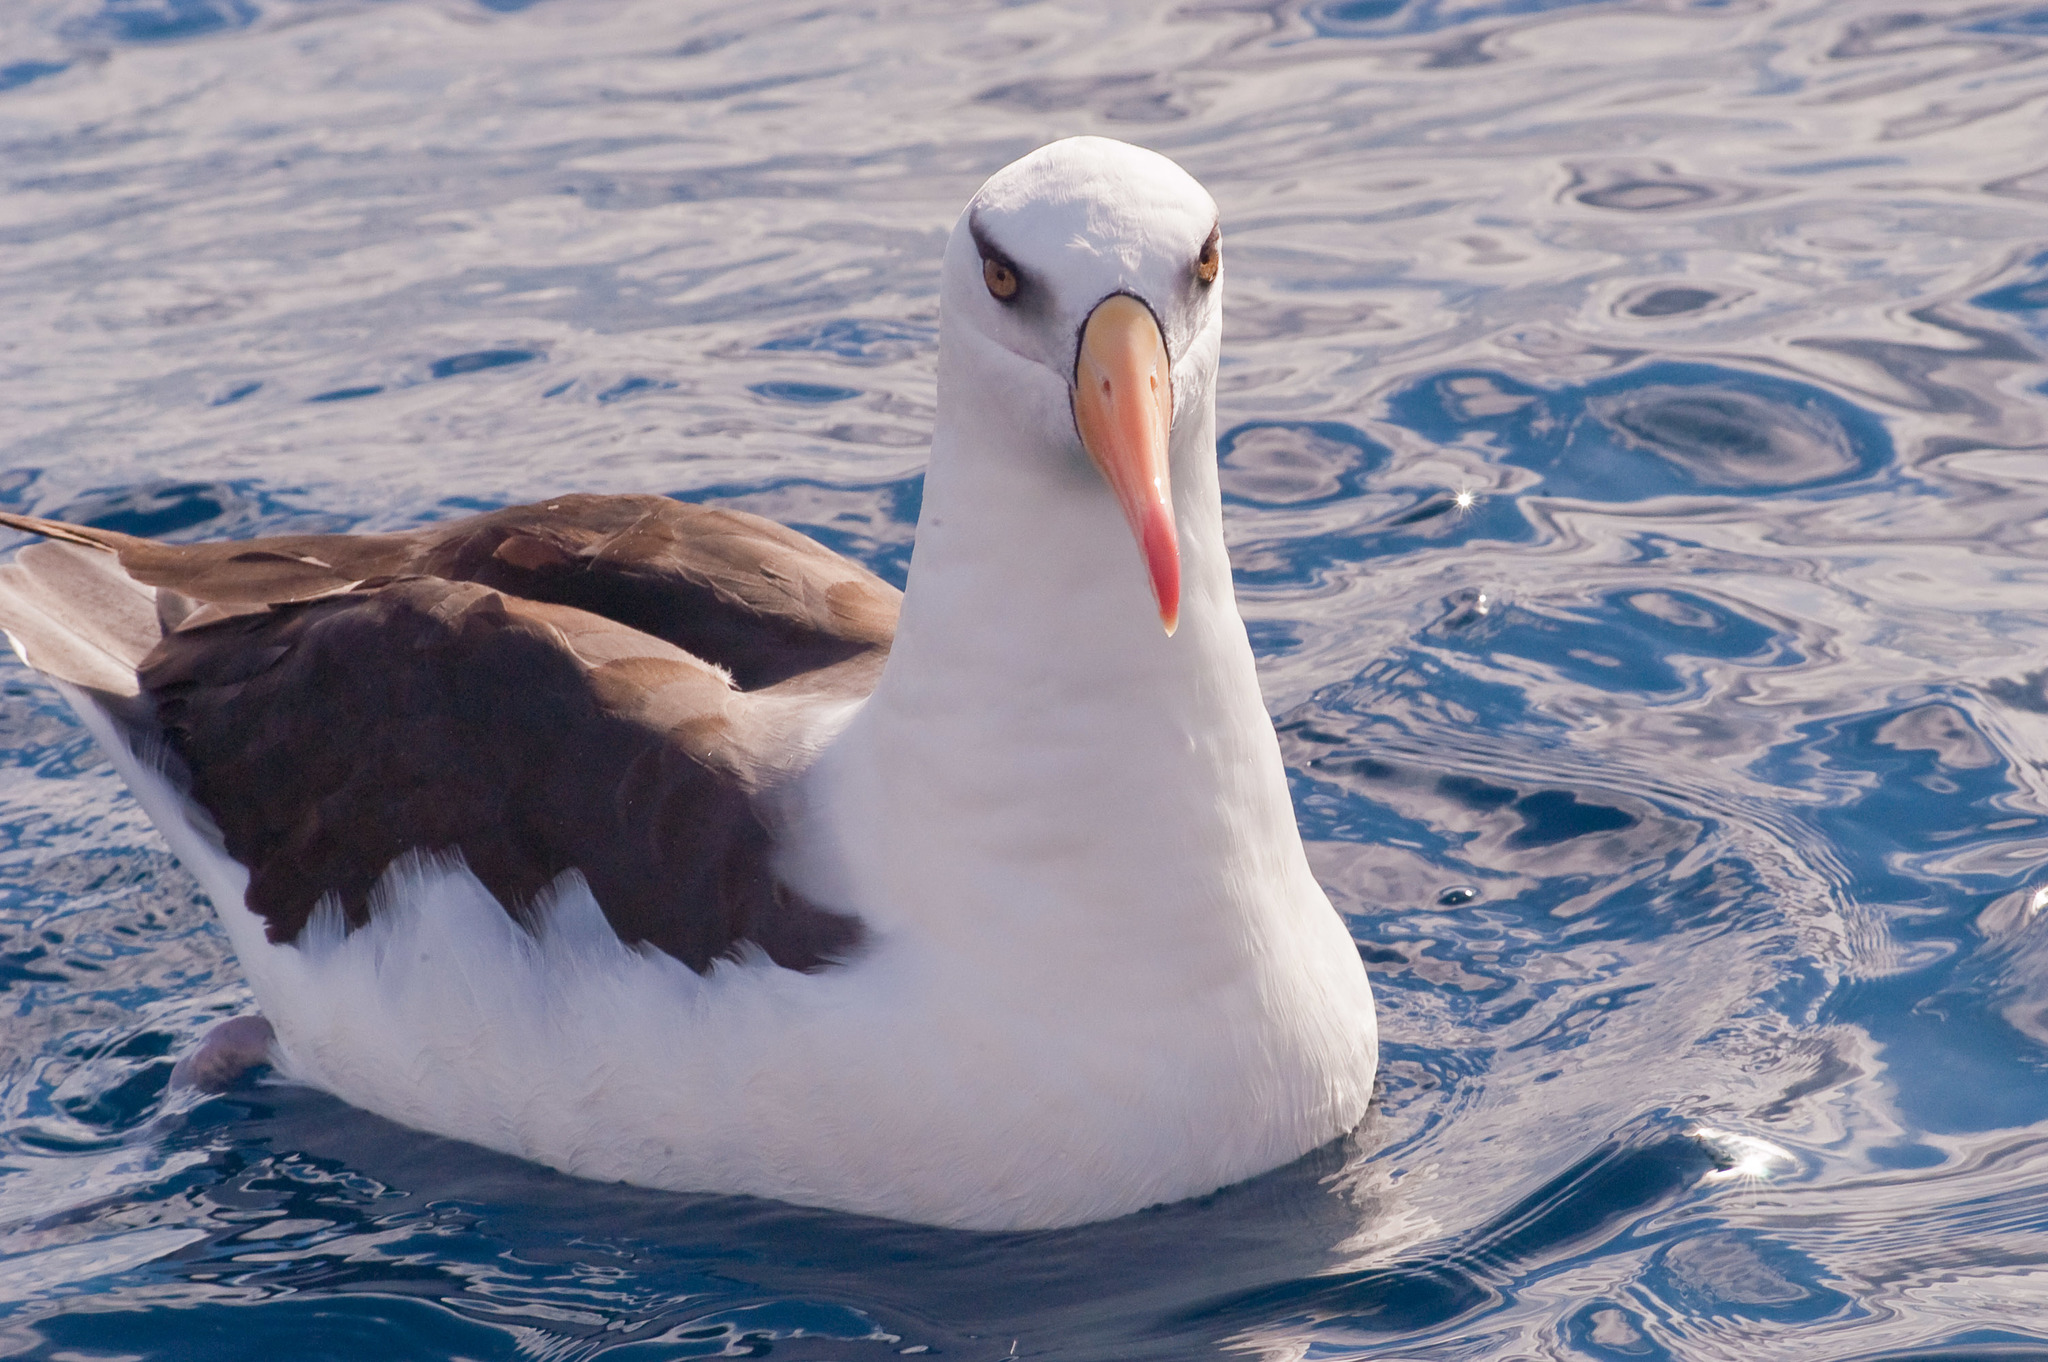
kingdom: Animalia
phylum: Chordata
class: Aves
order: Procellariiformes
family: Diomedeidae
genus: Thalassarche
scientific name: Thalassarche impavida
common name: Campbell albatross
